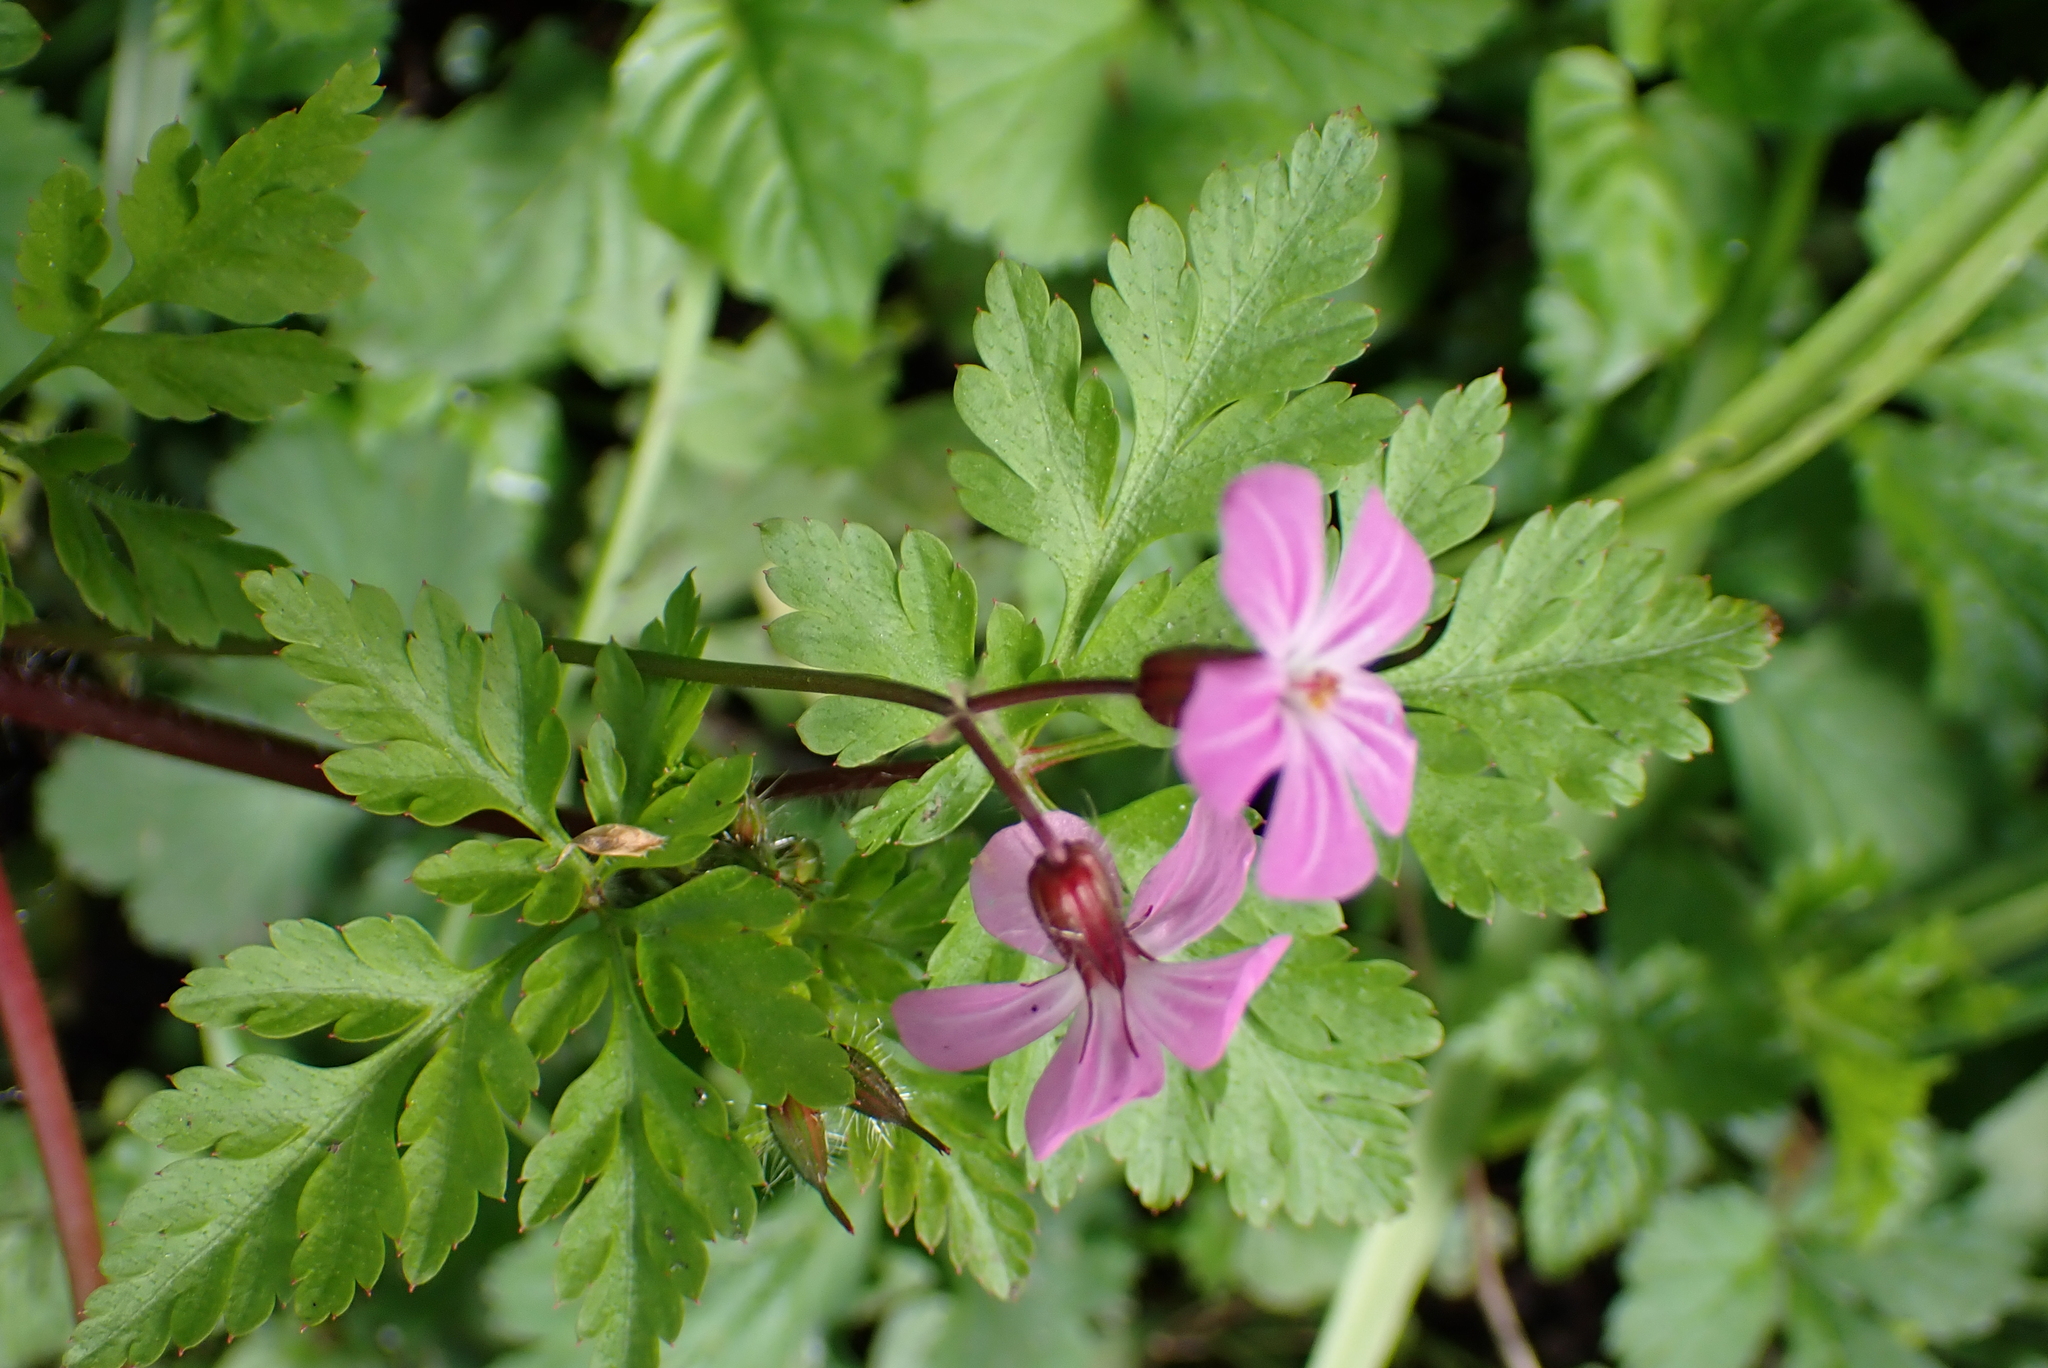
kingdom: Plantae
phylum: Tracheophyta
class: Magnoliopsida
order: Geraniales
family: Geraniaceae
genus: Geranium
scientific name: Geranium robertianum
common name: Herb-robert
